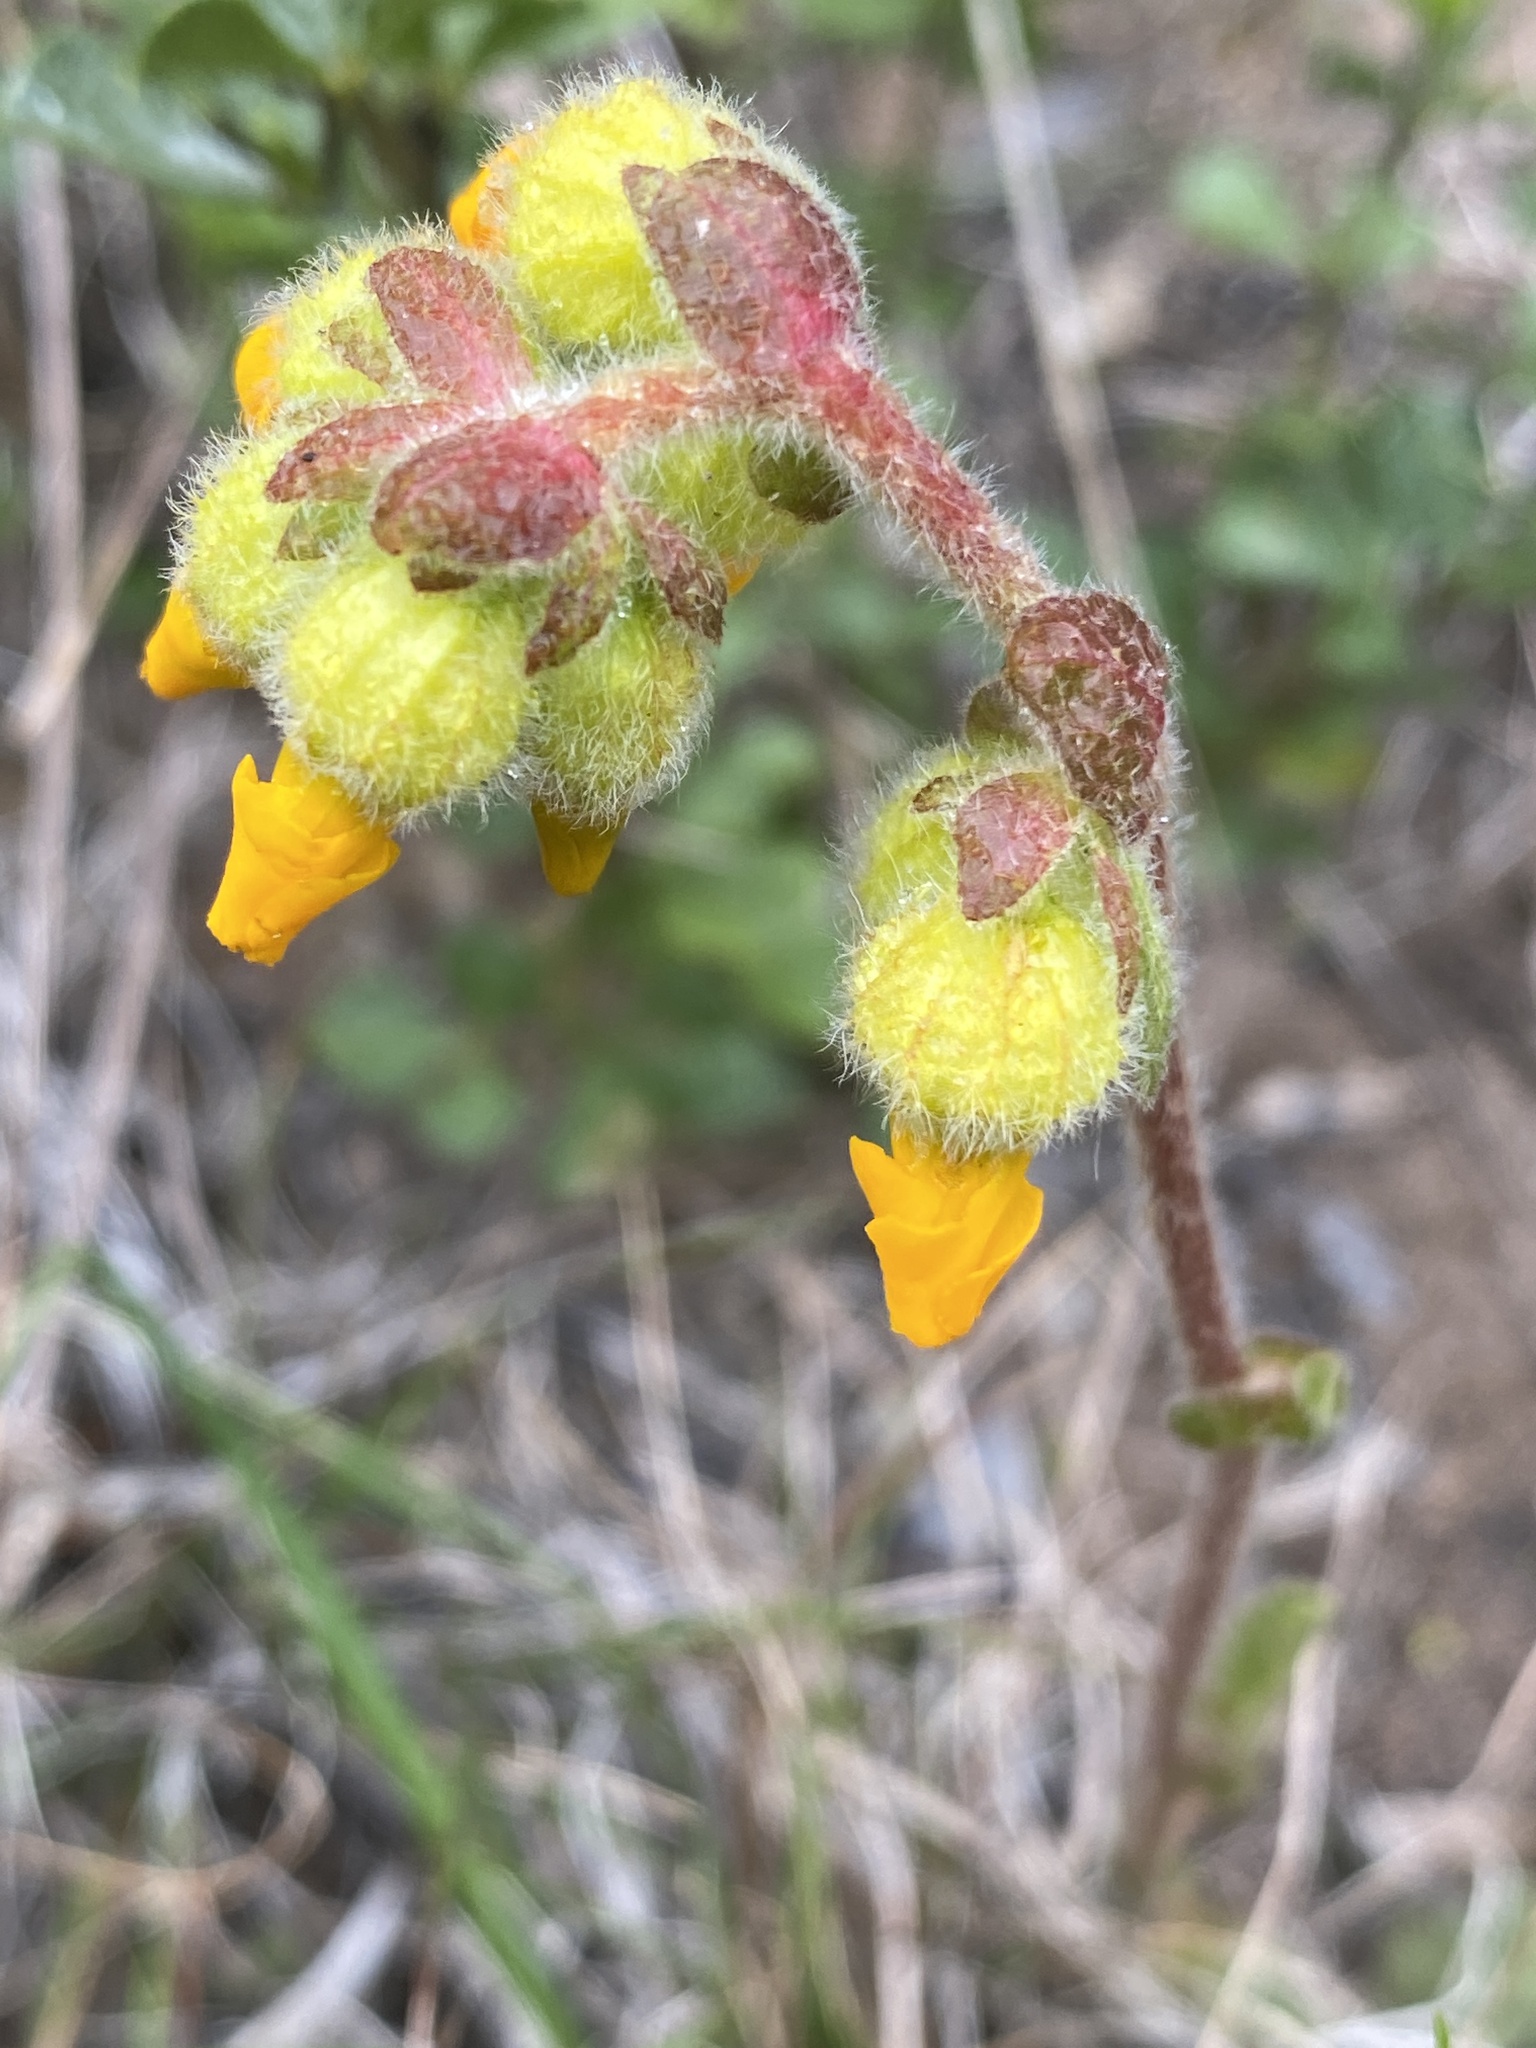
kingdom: Plantae
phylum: Tracheophyta
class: Magnoliopsida
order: Malvales
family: Malvaceae
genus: Hermannia
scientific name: Hermannia decumbens
